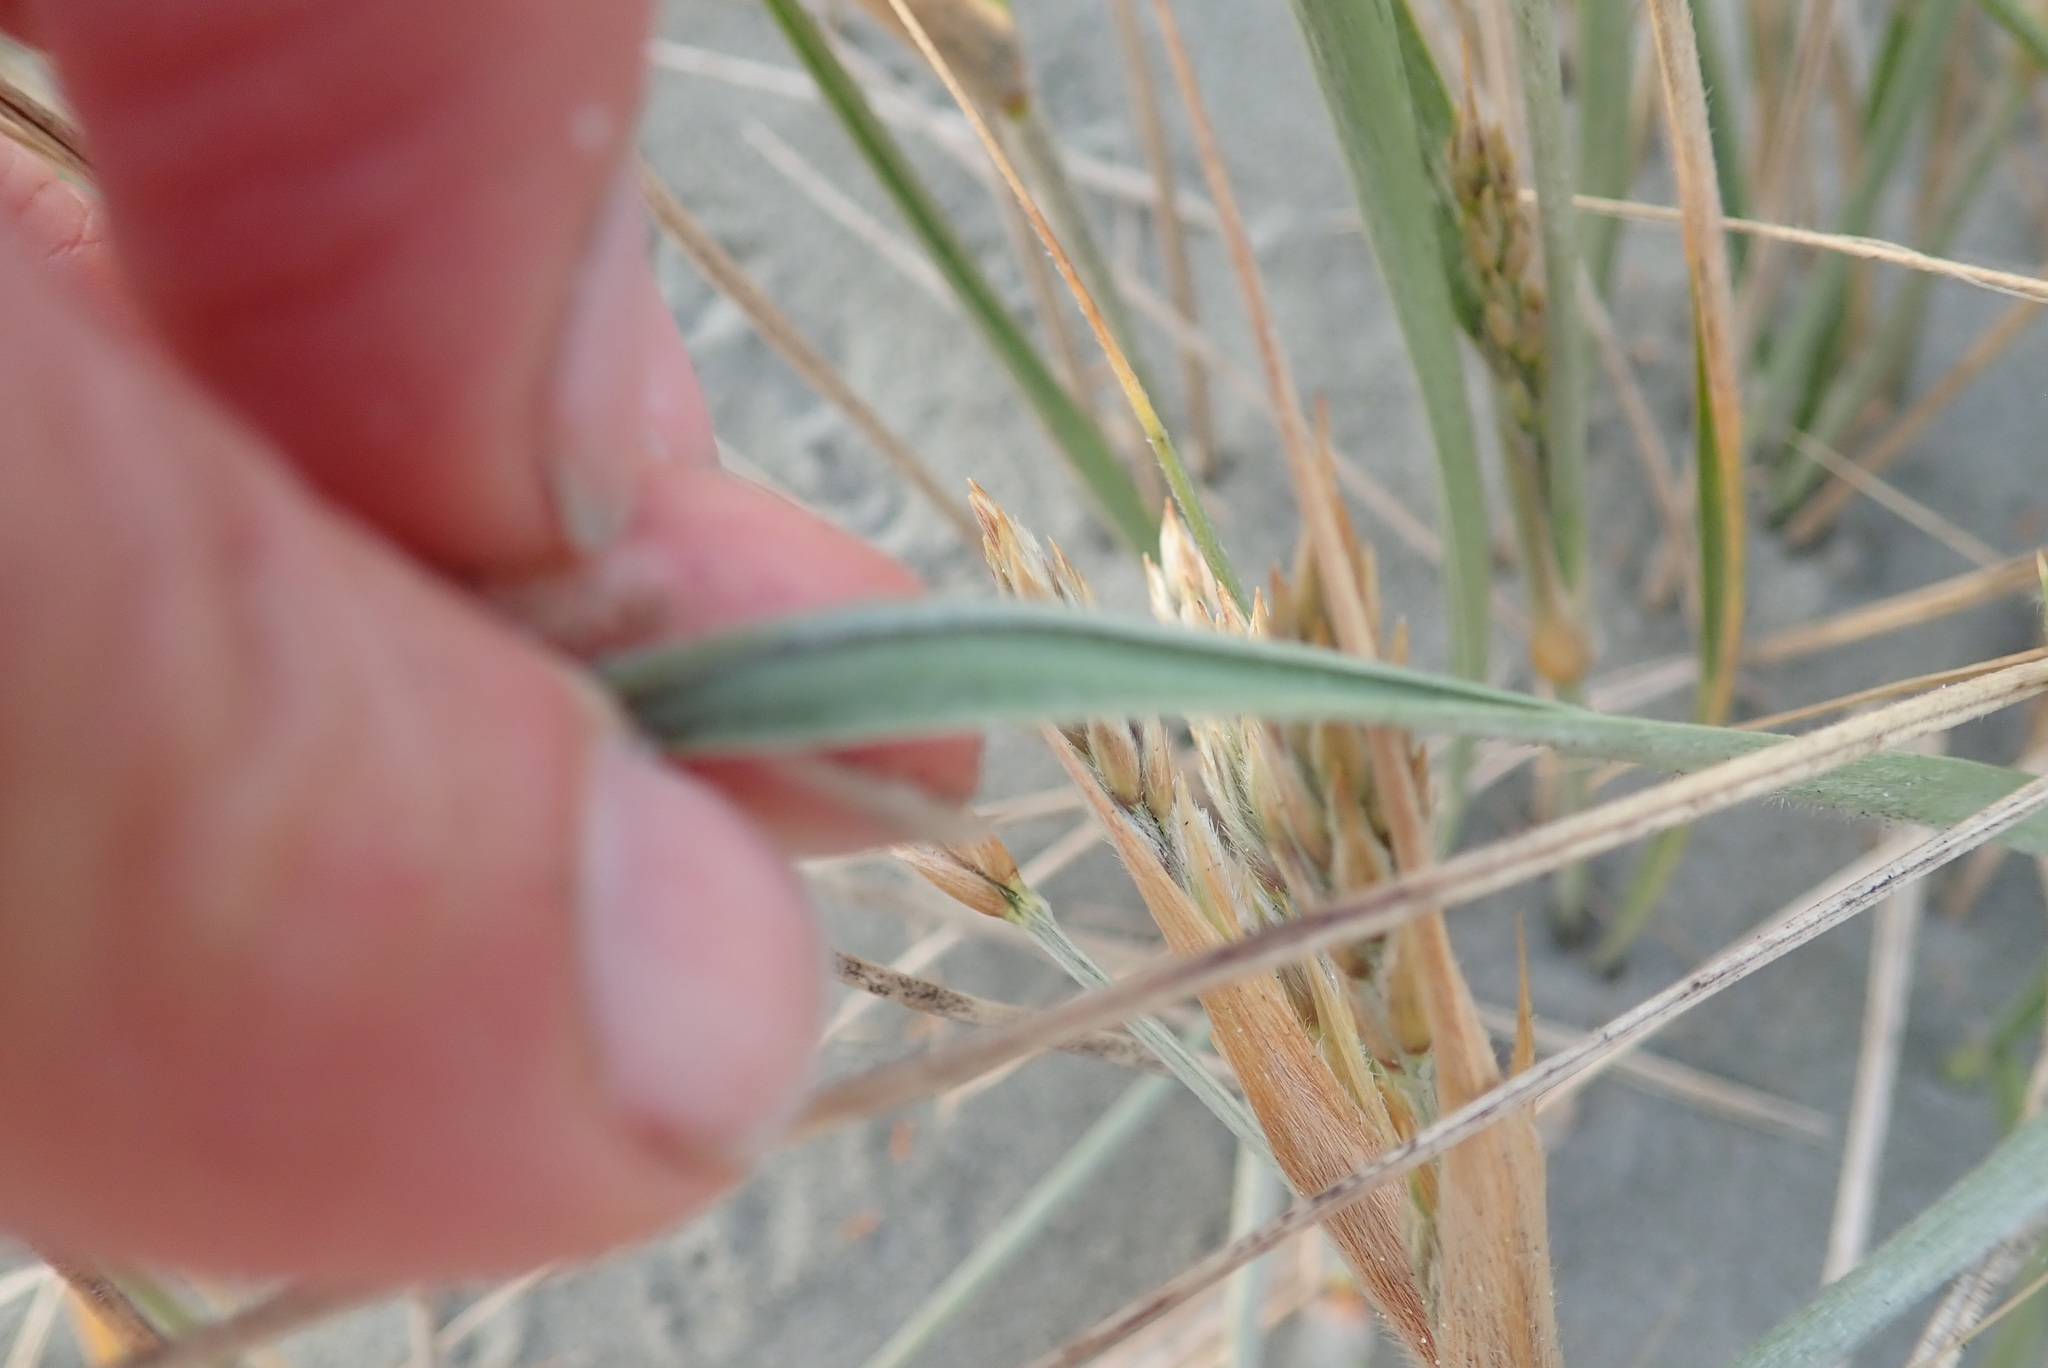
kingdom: Plantae
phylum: Tracheophyta
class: Liliopsida
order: Poales
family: Poaceae
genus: Spinifex
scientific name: Spinifex sericeus
